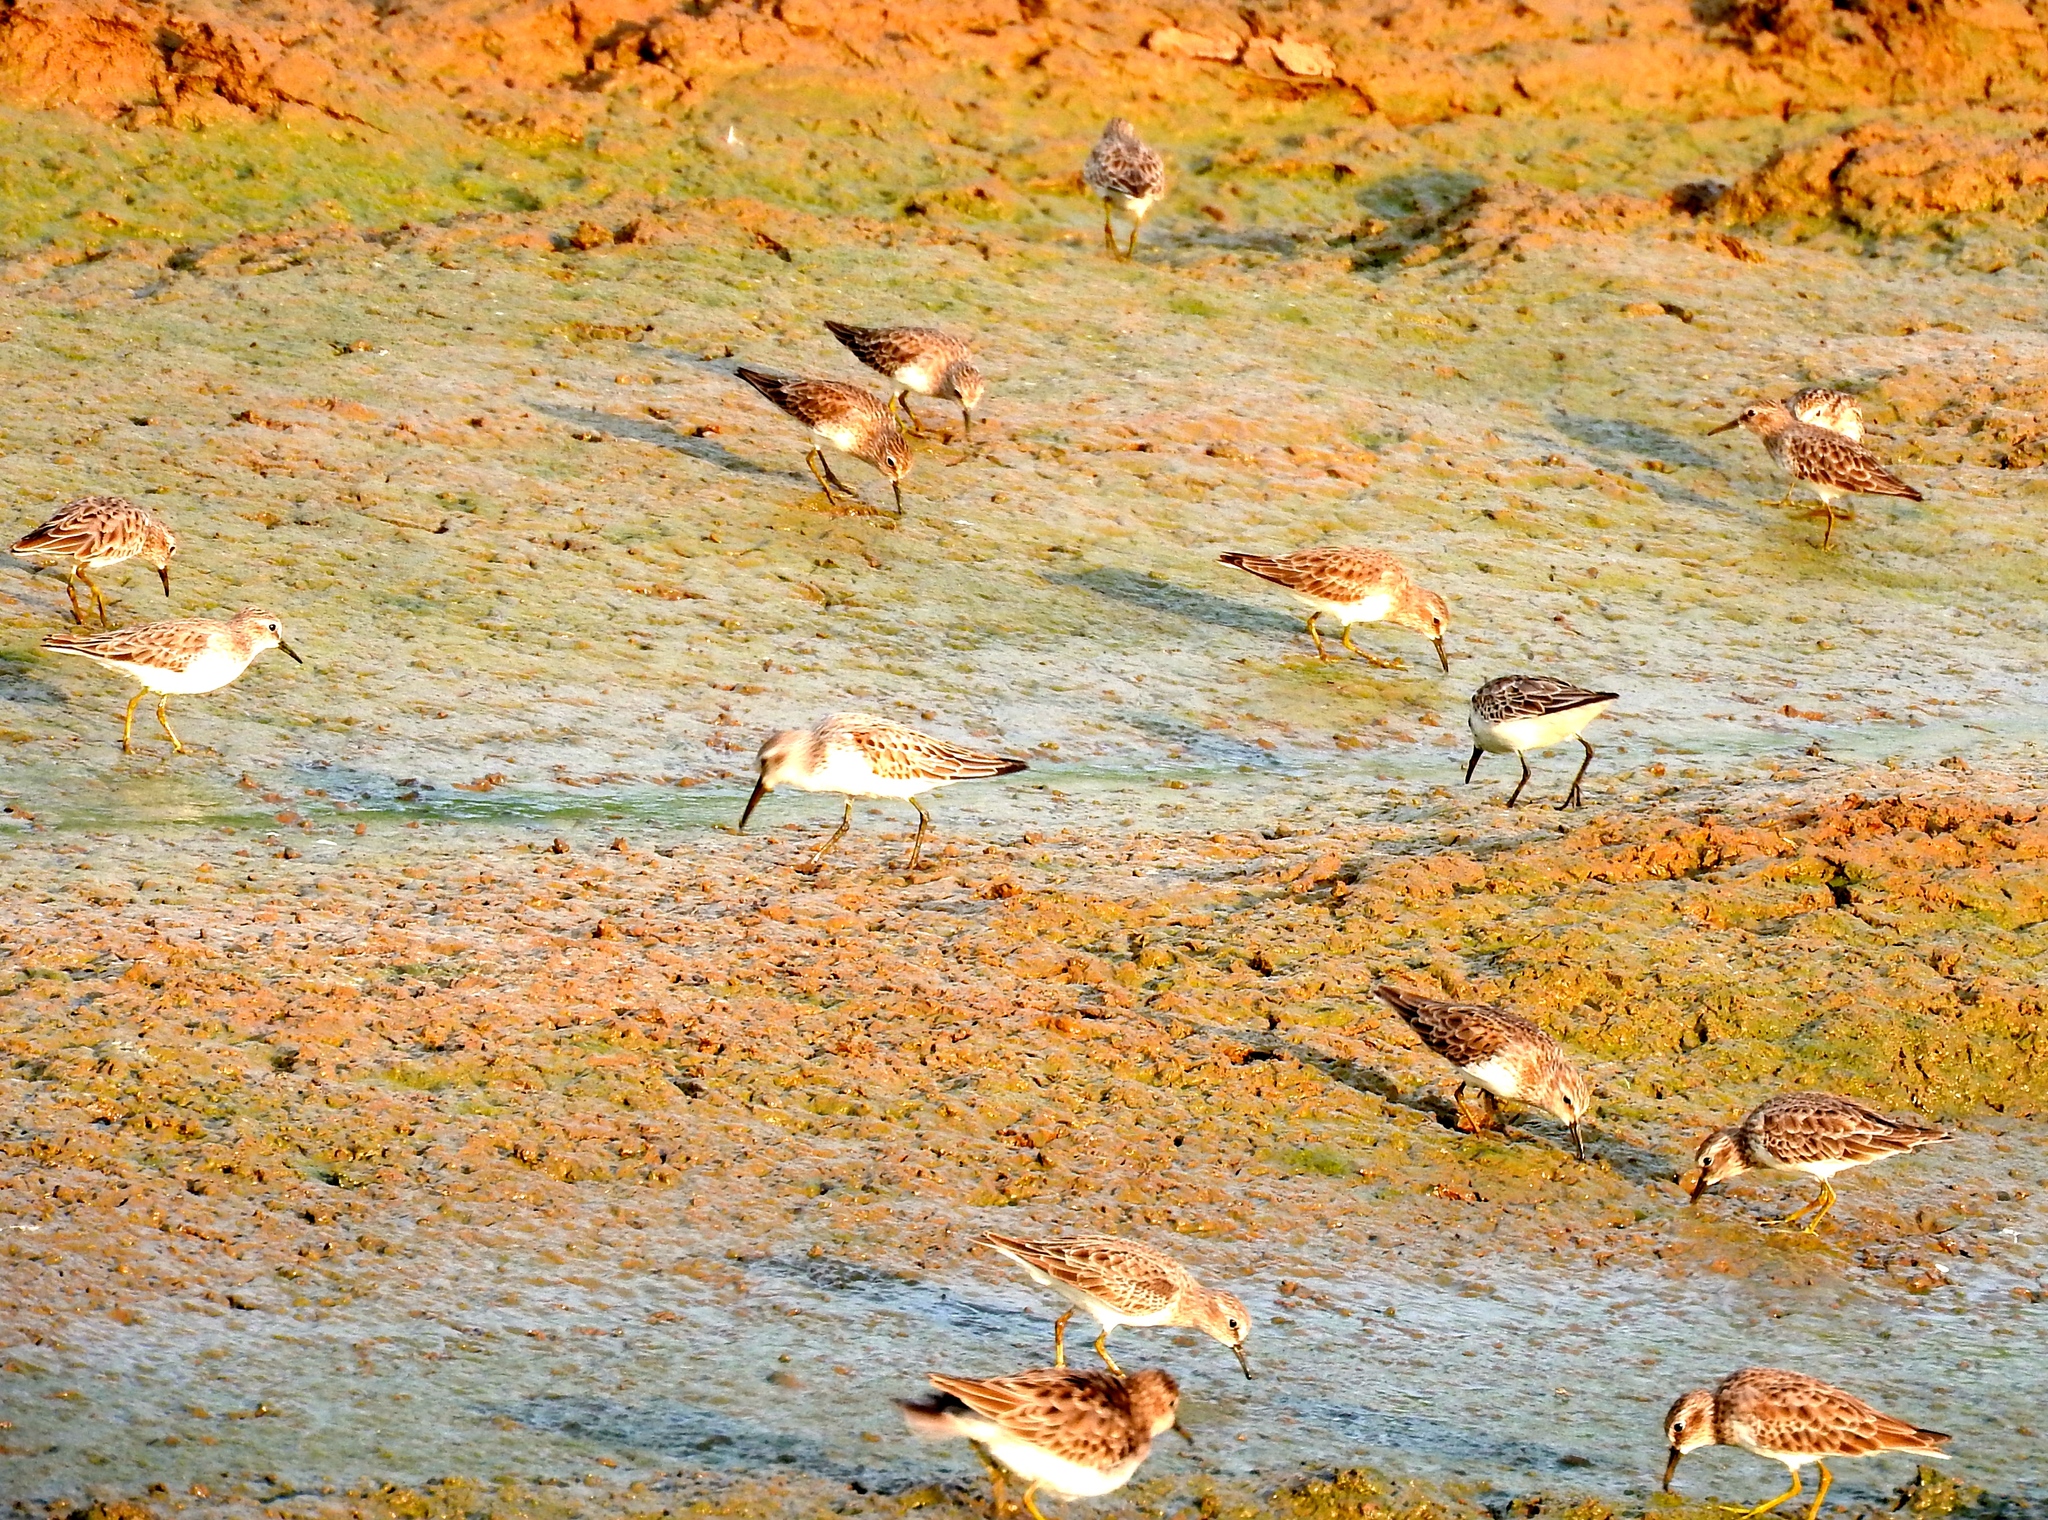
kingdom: Animalia
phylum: Chordata
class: Aves
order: Charadriiformes
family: Scolopacidae
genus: Calidris
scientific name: Calidris minutilla
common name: Least sandpiper
